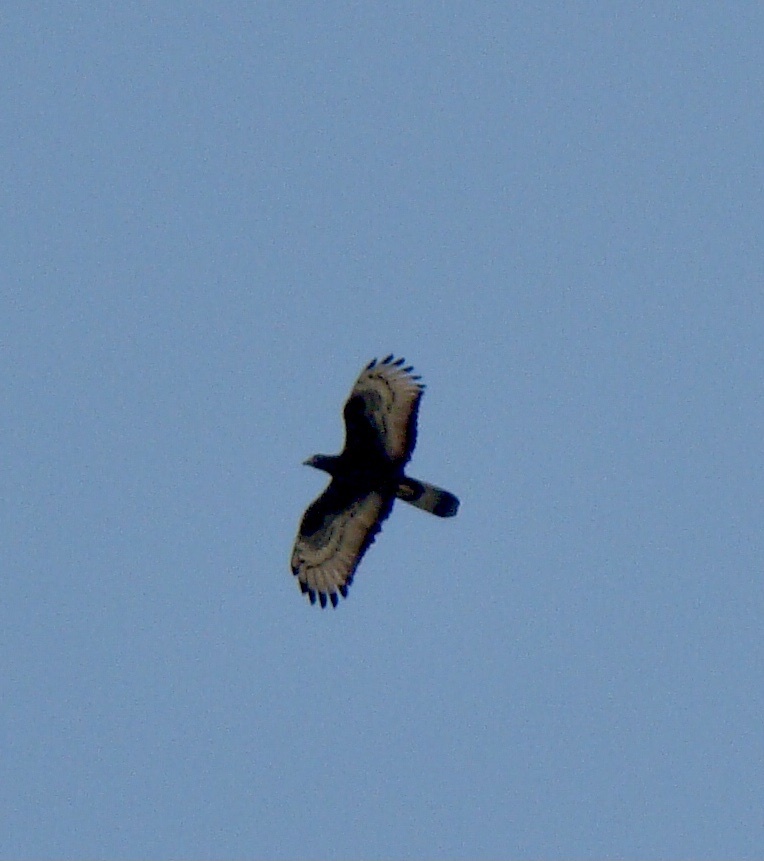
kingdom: Animalia
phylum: Chordata
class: Aves
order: Accipitriformes
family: Accipitridae
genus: Pernis
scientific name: Pernis ptilorhynchus
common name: Crested honey buzzard
